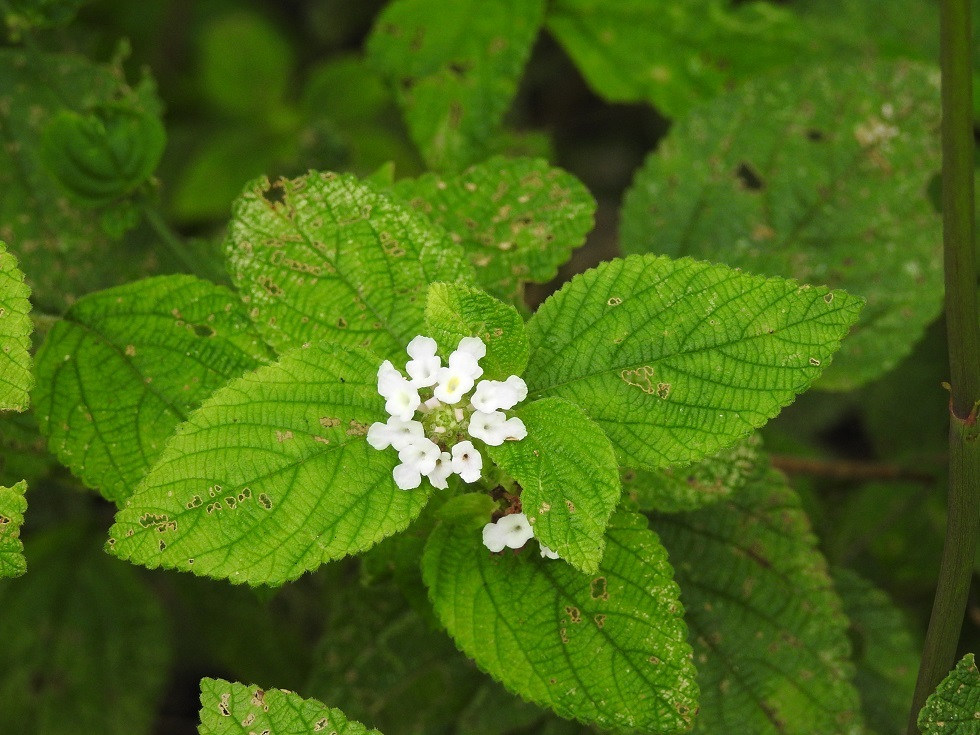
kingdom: Plantae
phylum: Tracheophyta
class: Magnoliopsida
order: Lamiales
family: Verbenaceae
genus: Lantana
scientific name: Lantana velutina
